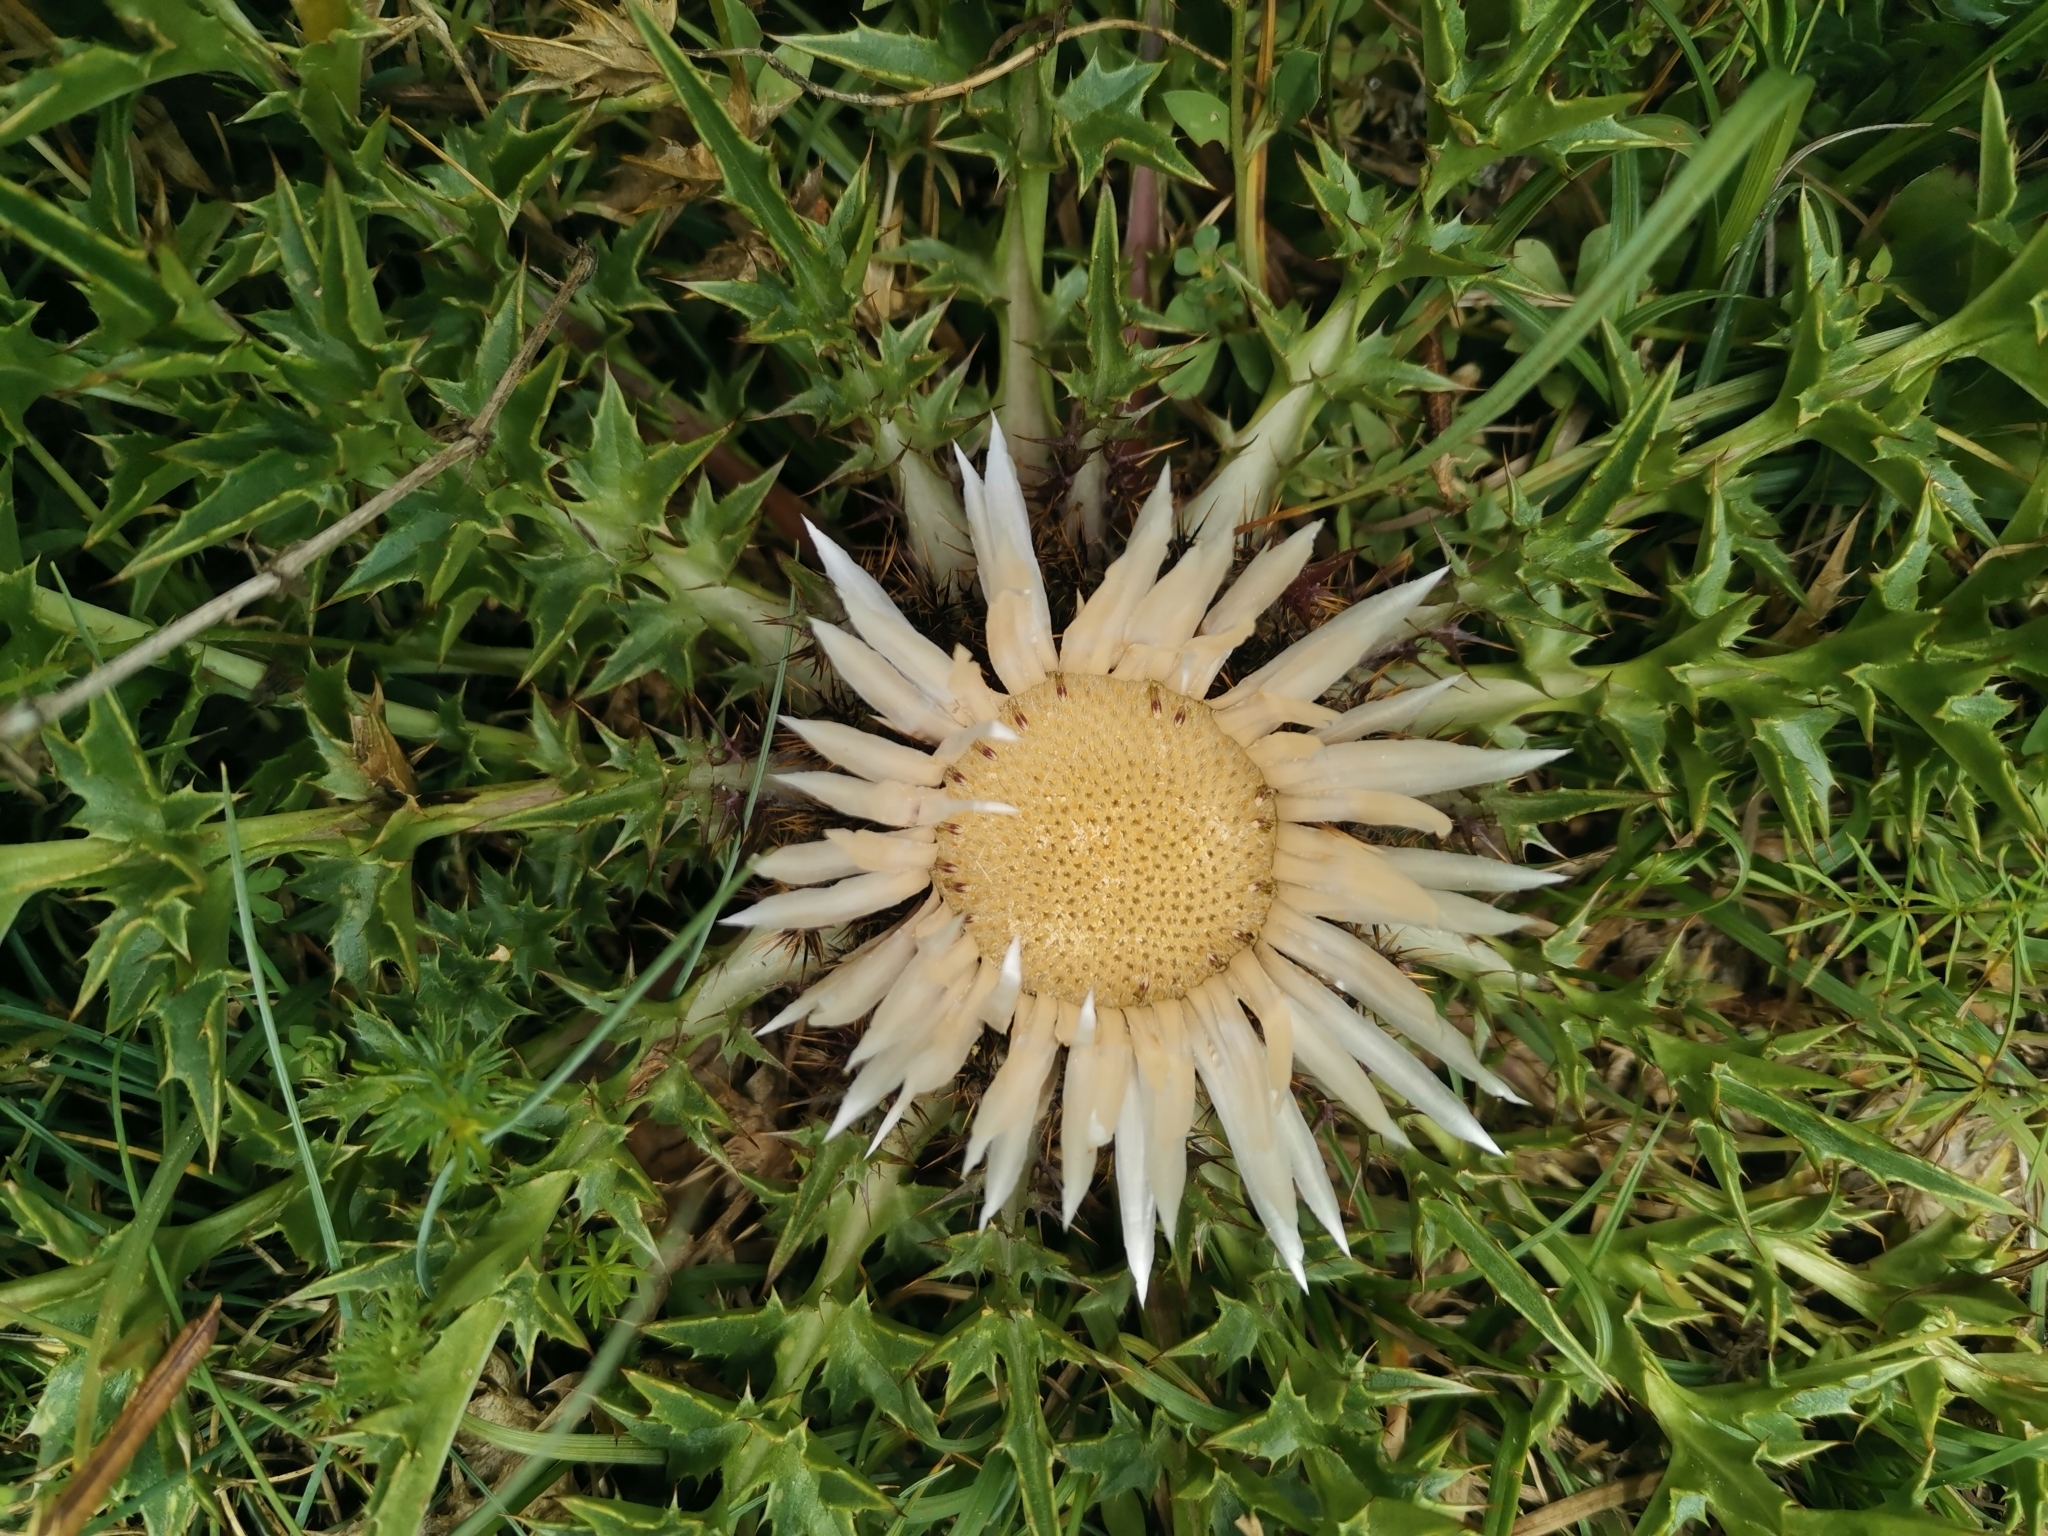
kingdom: Plantae
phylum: Tracheophyta
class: Magnoliopsida
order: Asterales
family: Asteraceae
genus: Carlina
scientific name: Carlina acaulis
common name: Stemless carline thistle
